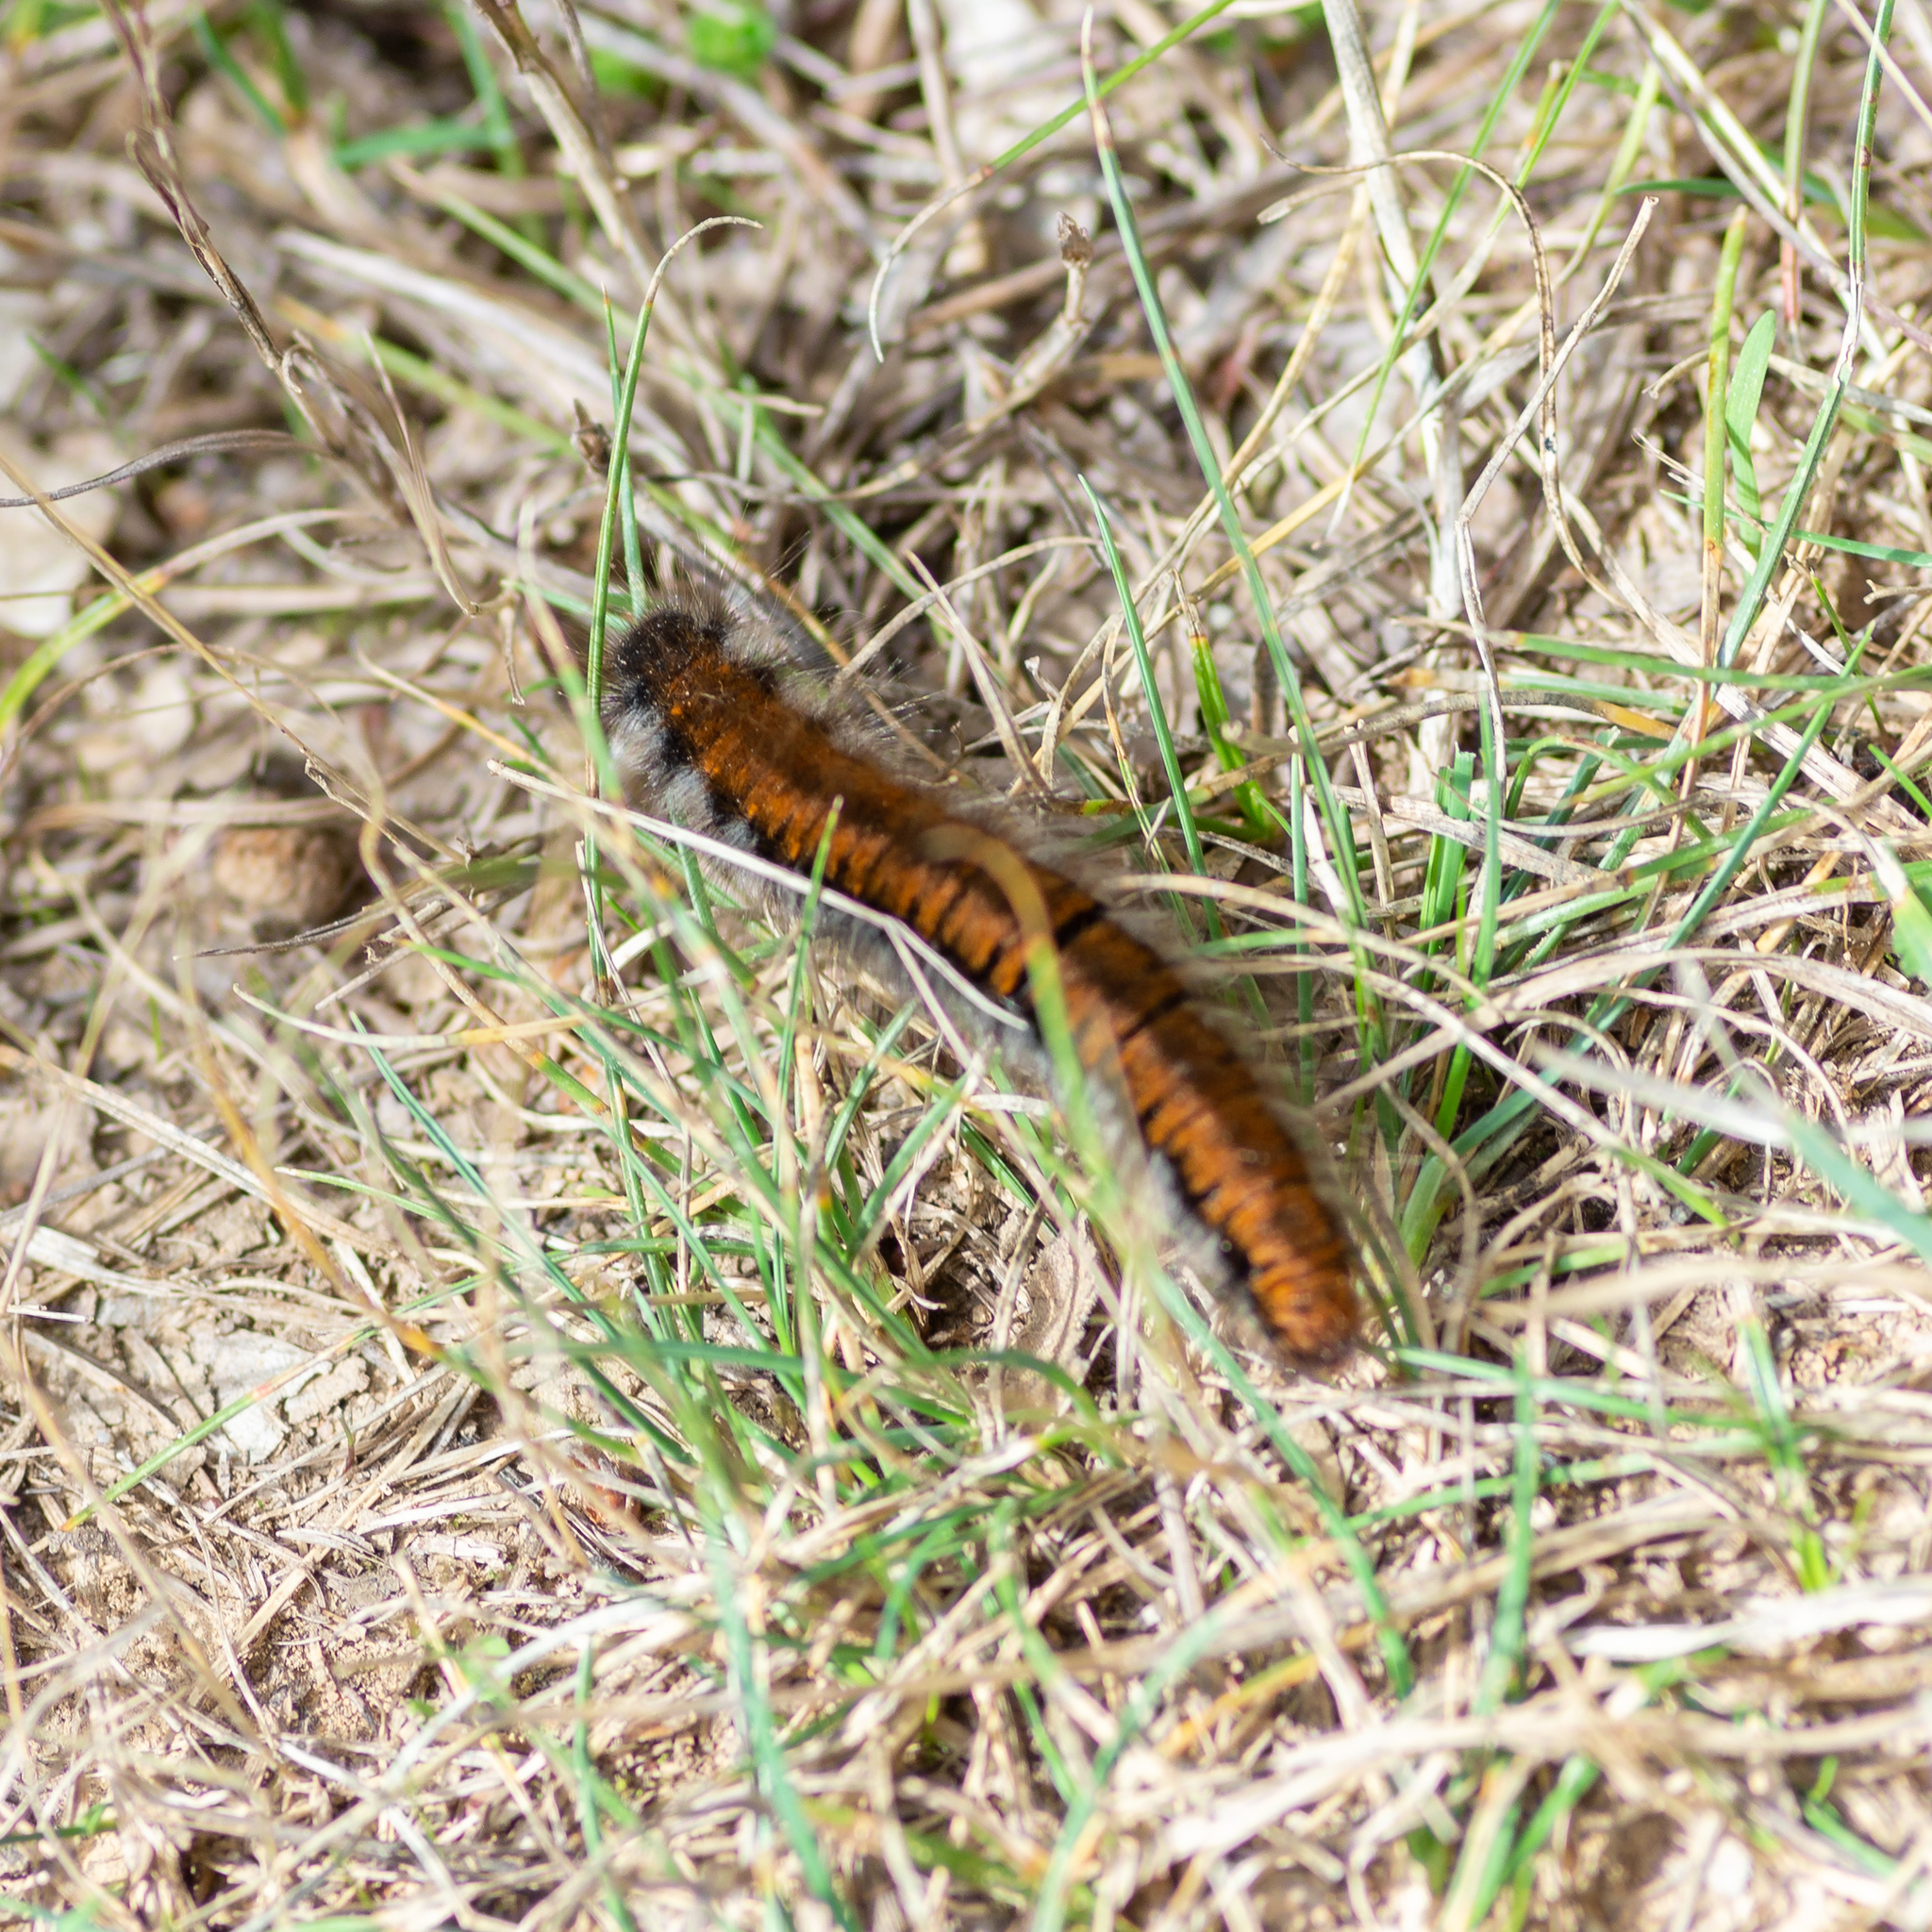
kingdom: Animalia
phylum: Arthropoda
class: Insecta
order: Lepidoptera
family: Lasiocampidae
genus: Macrothylacia
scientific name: Macrothylacia rubi
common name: Fox moth
